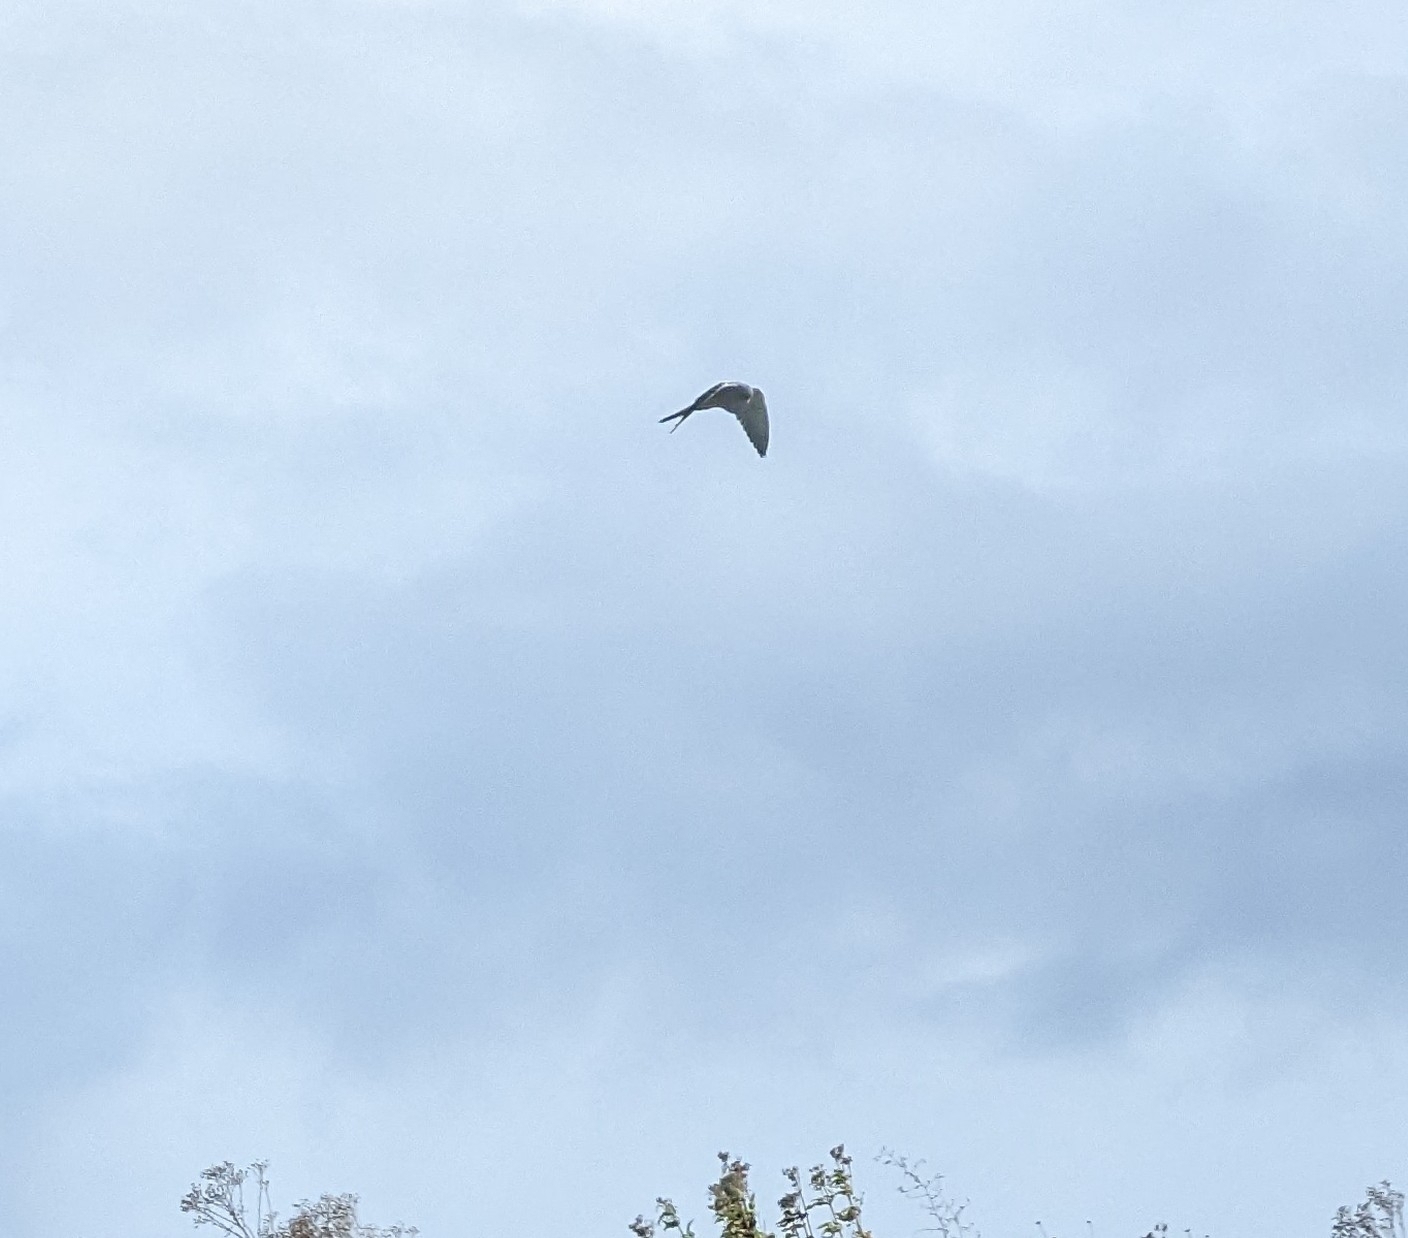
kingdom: Animalia
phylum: Chordata
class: Aves
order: Falconiformes
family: Falconidae
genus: Falco
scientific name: Falco tinnunculus
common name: Common kestrel
